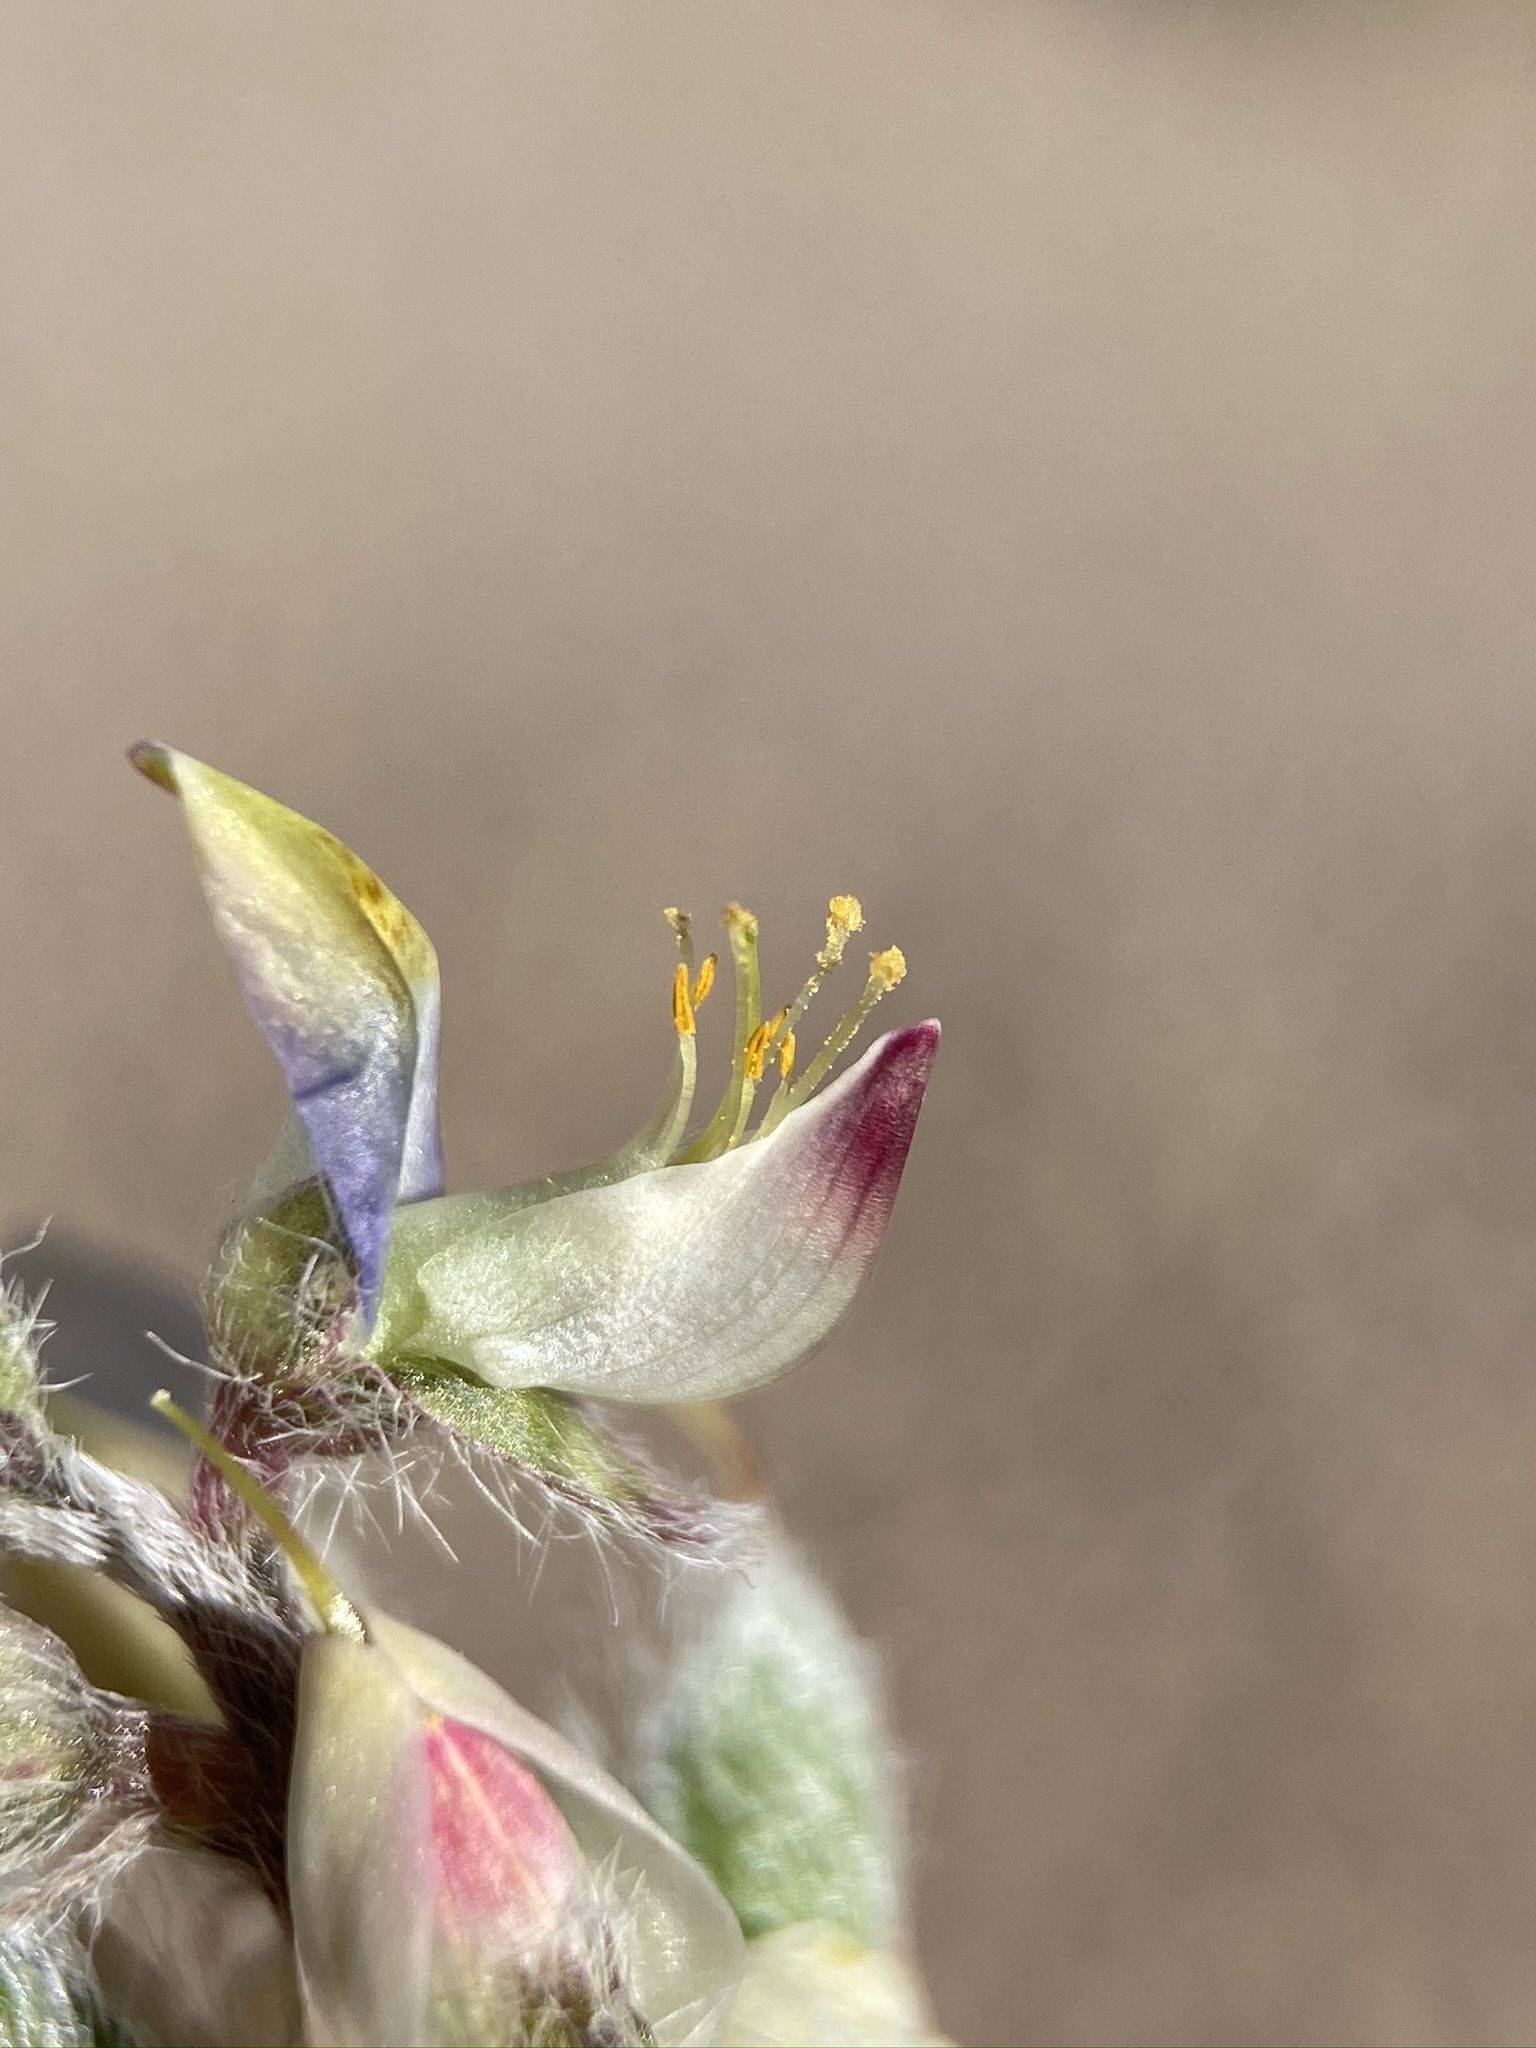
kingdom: Plantae
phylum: Tracheophyta
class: Magnoliopsida
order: Fabales
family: Fabaceae
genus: Lupinus
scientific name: Lupinus concinnus
